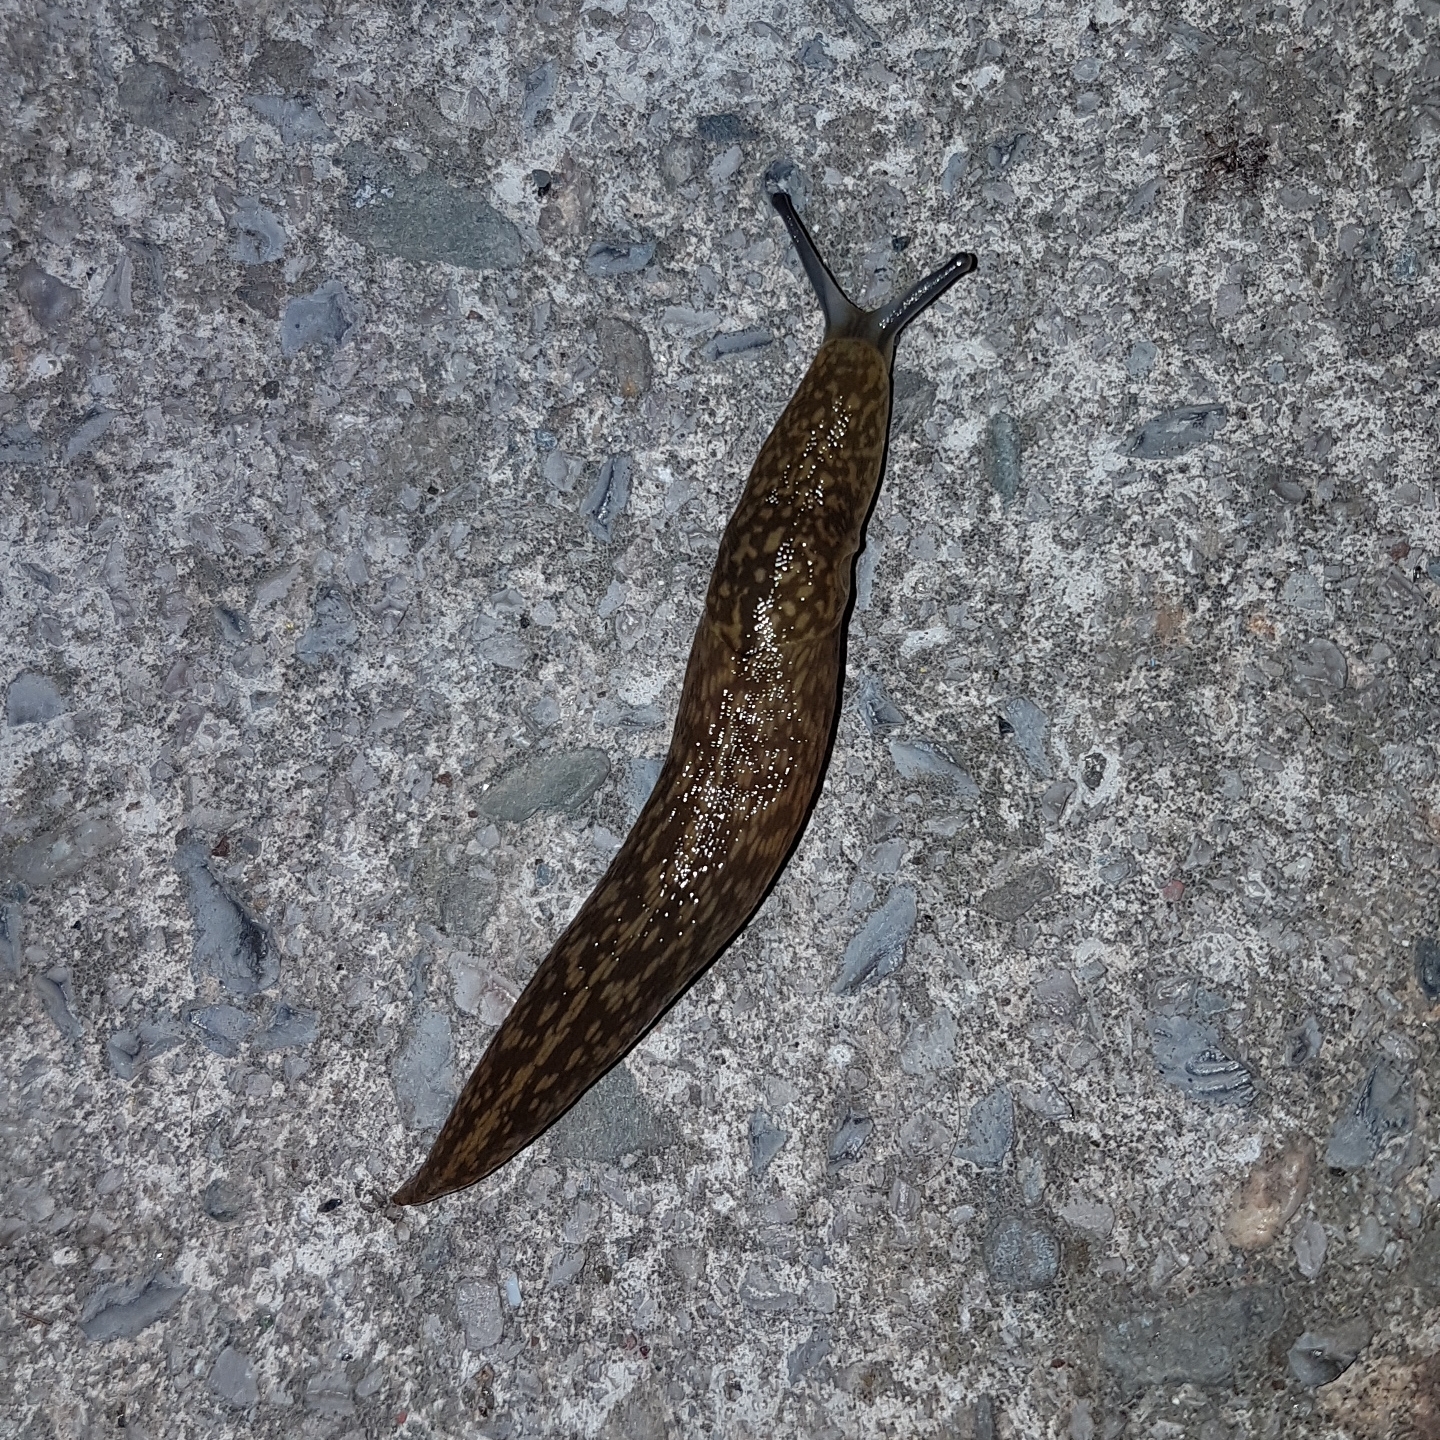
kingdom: Animalia
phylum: Mollusca
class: Gastropoda
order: Stylommatophora
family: Limacidae
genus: Limacus
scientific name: Limacus flavus
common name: Yellow gardenslug
